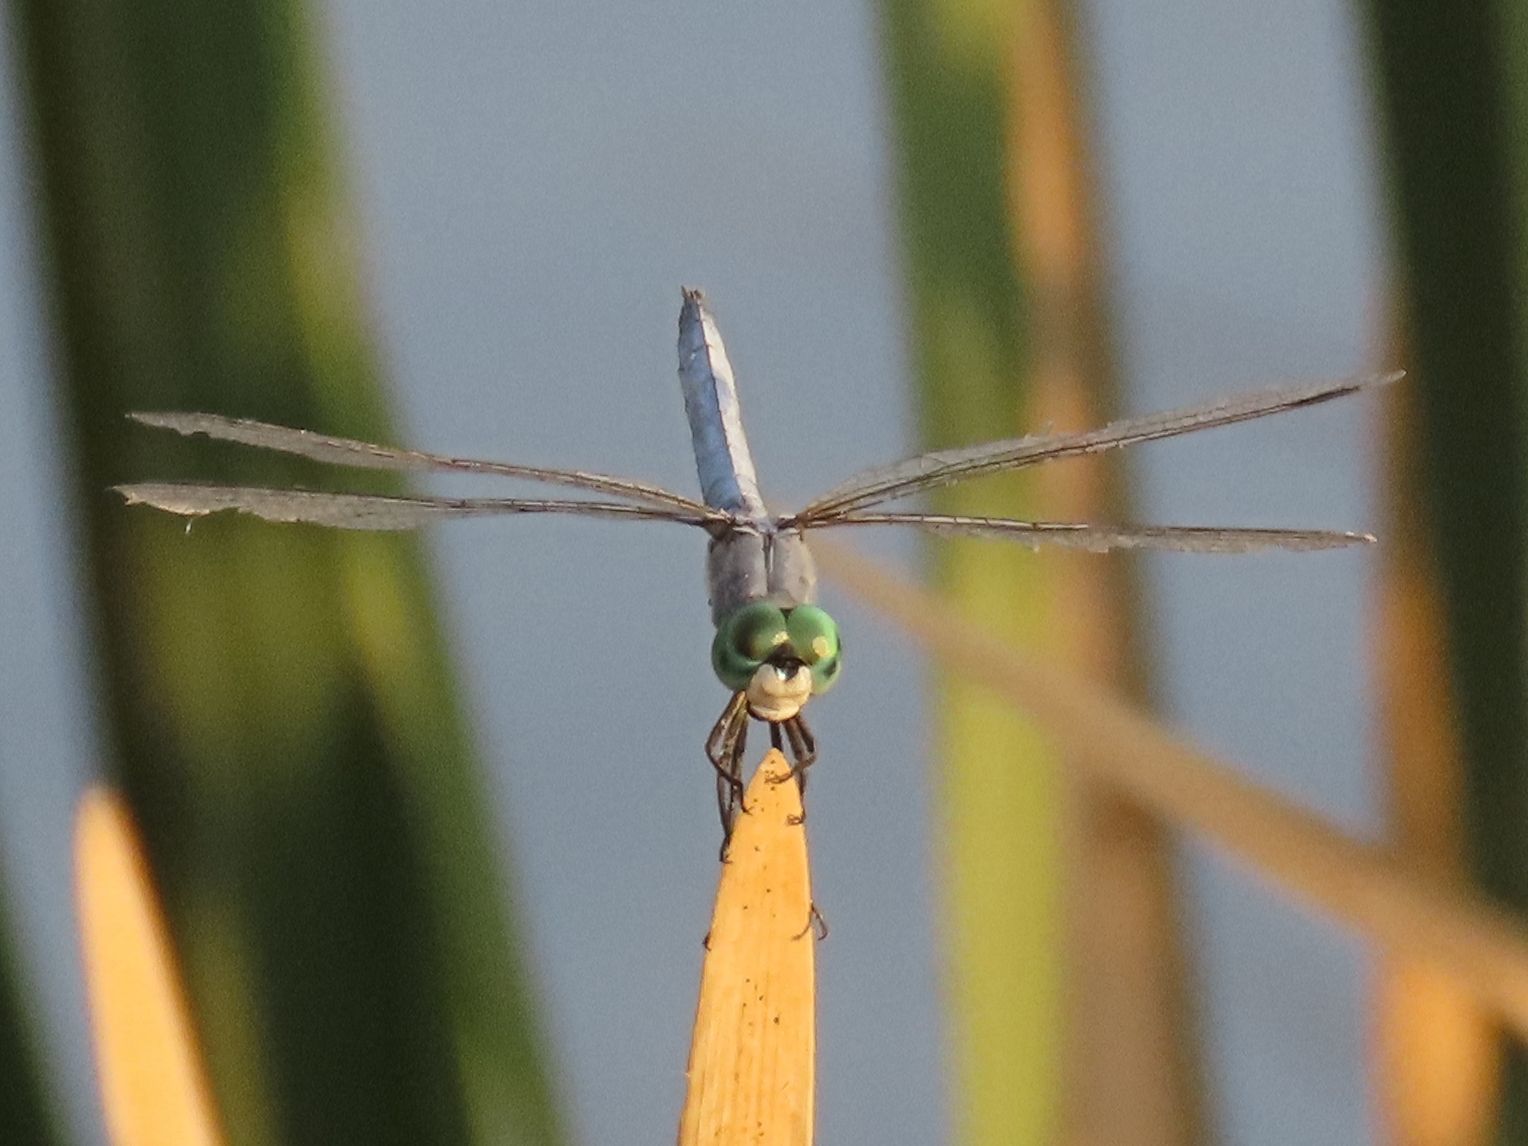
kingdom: Animalia
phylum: Arthropoda
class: Insecta
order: Odonata
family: Libellulidae
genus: Pachydiplax
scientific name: Pachydiplax longipennis
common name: Blue dasher
